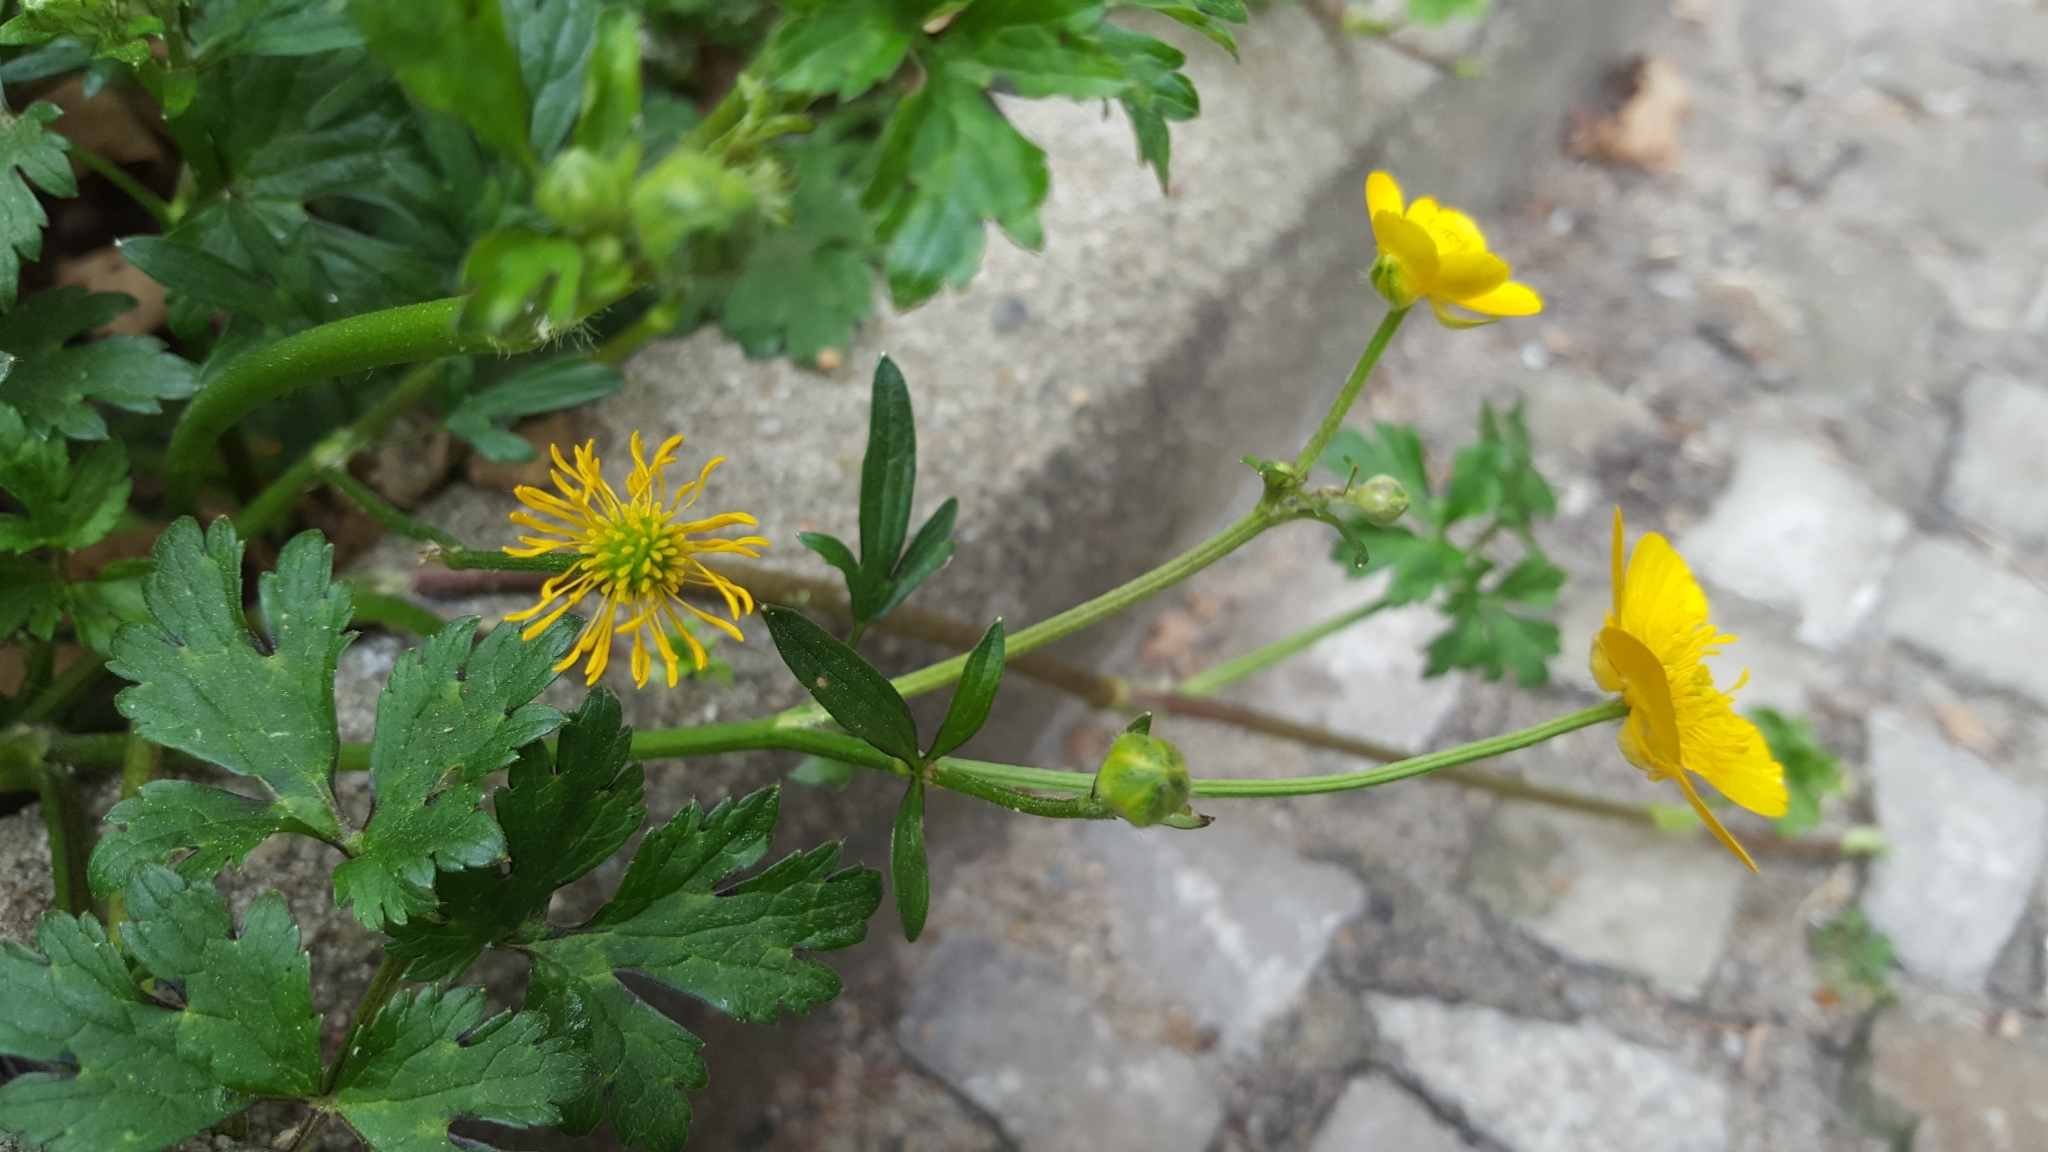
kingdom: Plantae
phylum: Tracheophyta
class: Magnoliopsida
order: Ranunculales
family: Ranunculaceae
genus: Ranunculus
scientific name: Ranunculus repens
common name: Creeping buttercup
